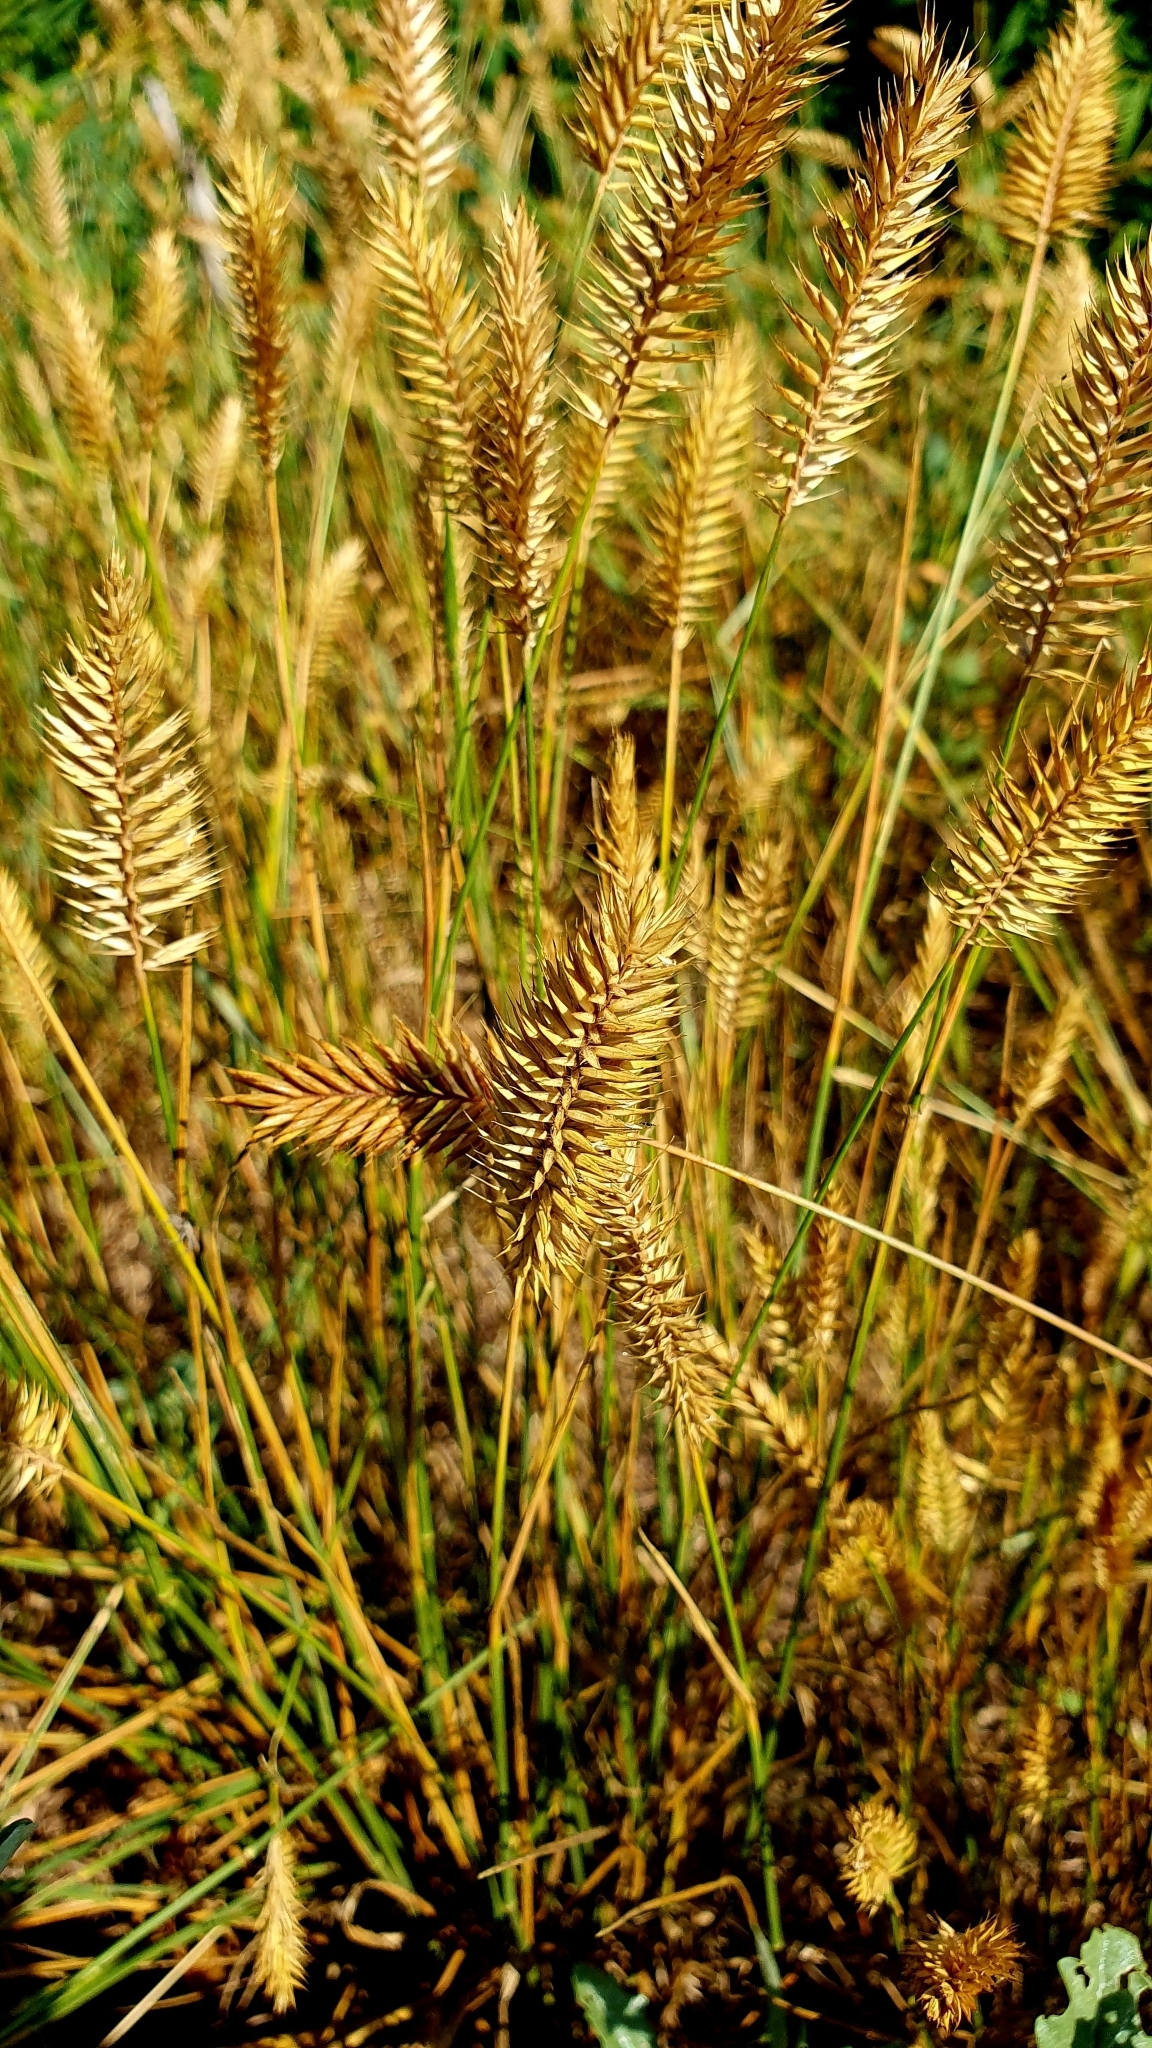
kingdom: Plantae
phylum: Tracheophyta
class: Liliopsida
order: Poales
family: Poaceae
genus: Agropyron
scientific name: Agropyron cristatum
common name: Crested wheatgrass
